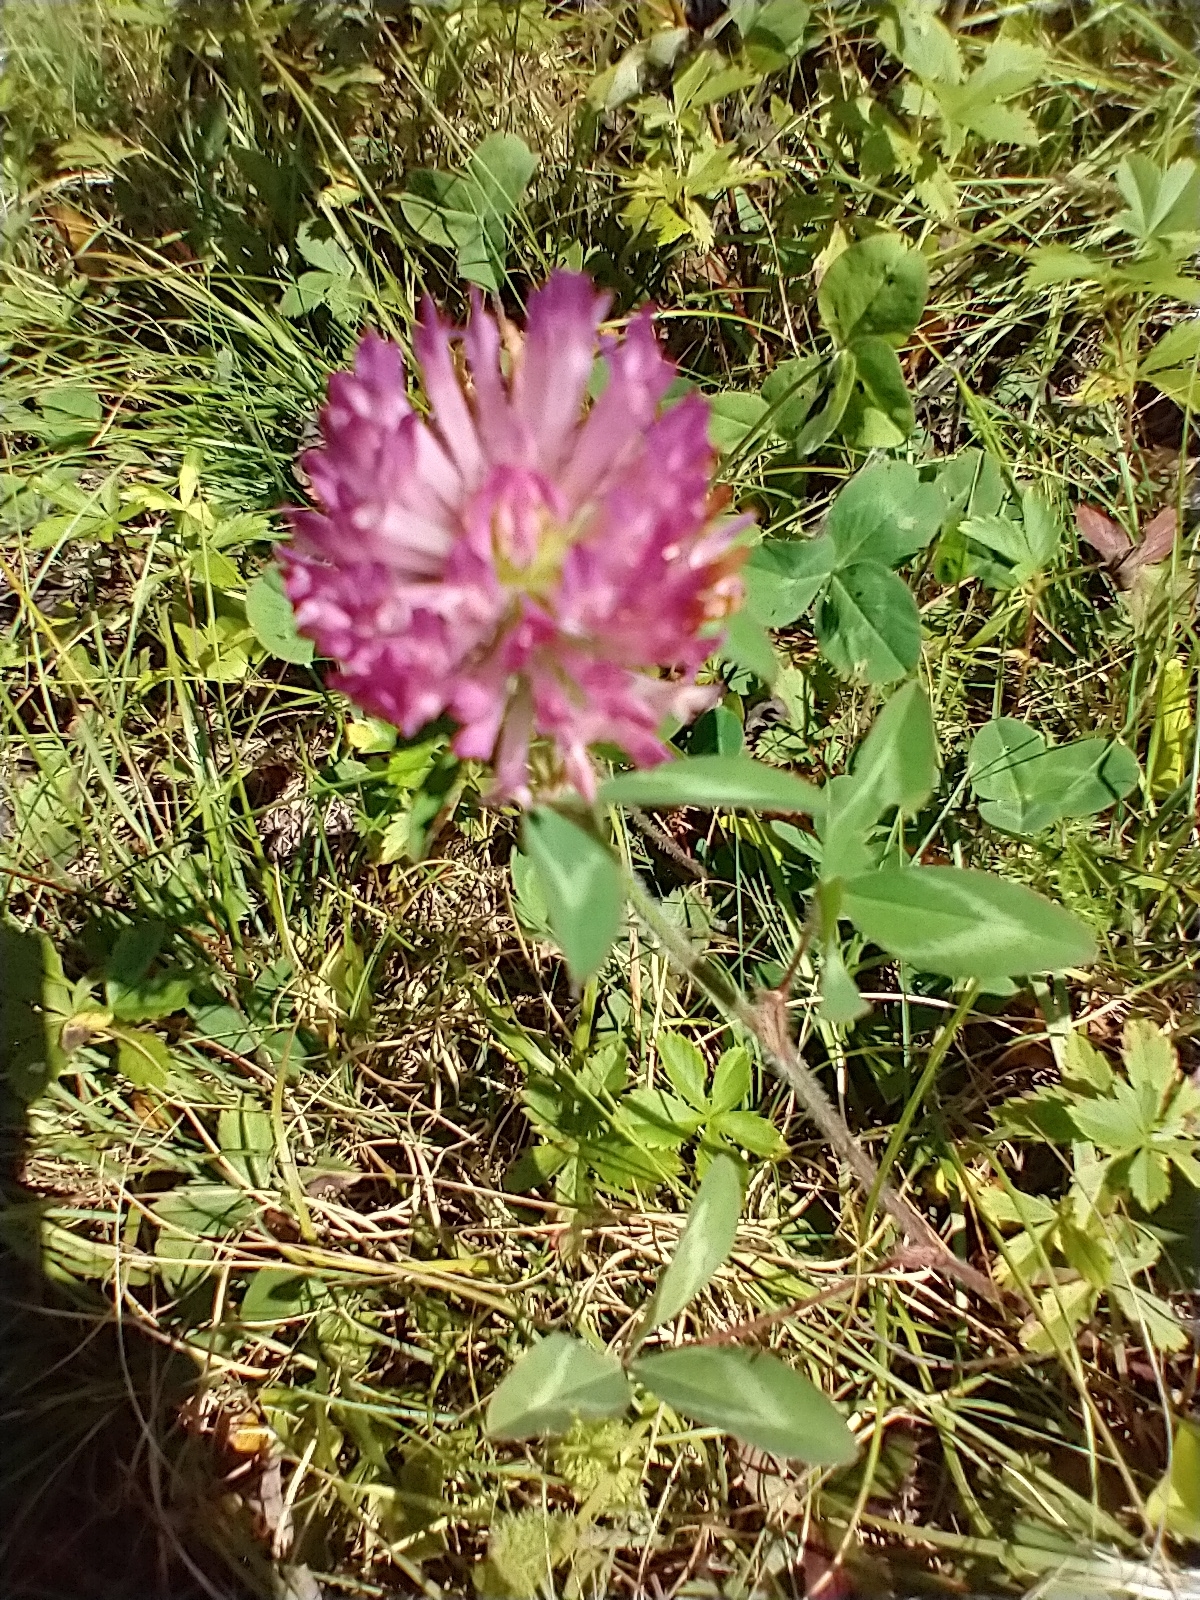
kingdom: Plantae
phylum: Tracheophyta
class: Magnoliopsida
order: Fabales
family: Fabaceae
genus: Trifolium
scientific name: Trifolium pratense
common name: Red clover
